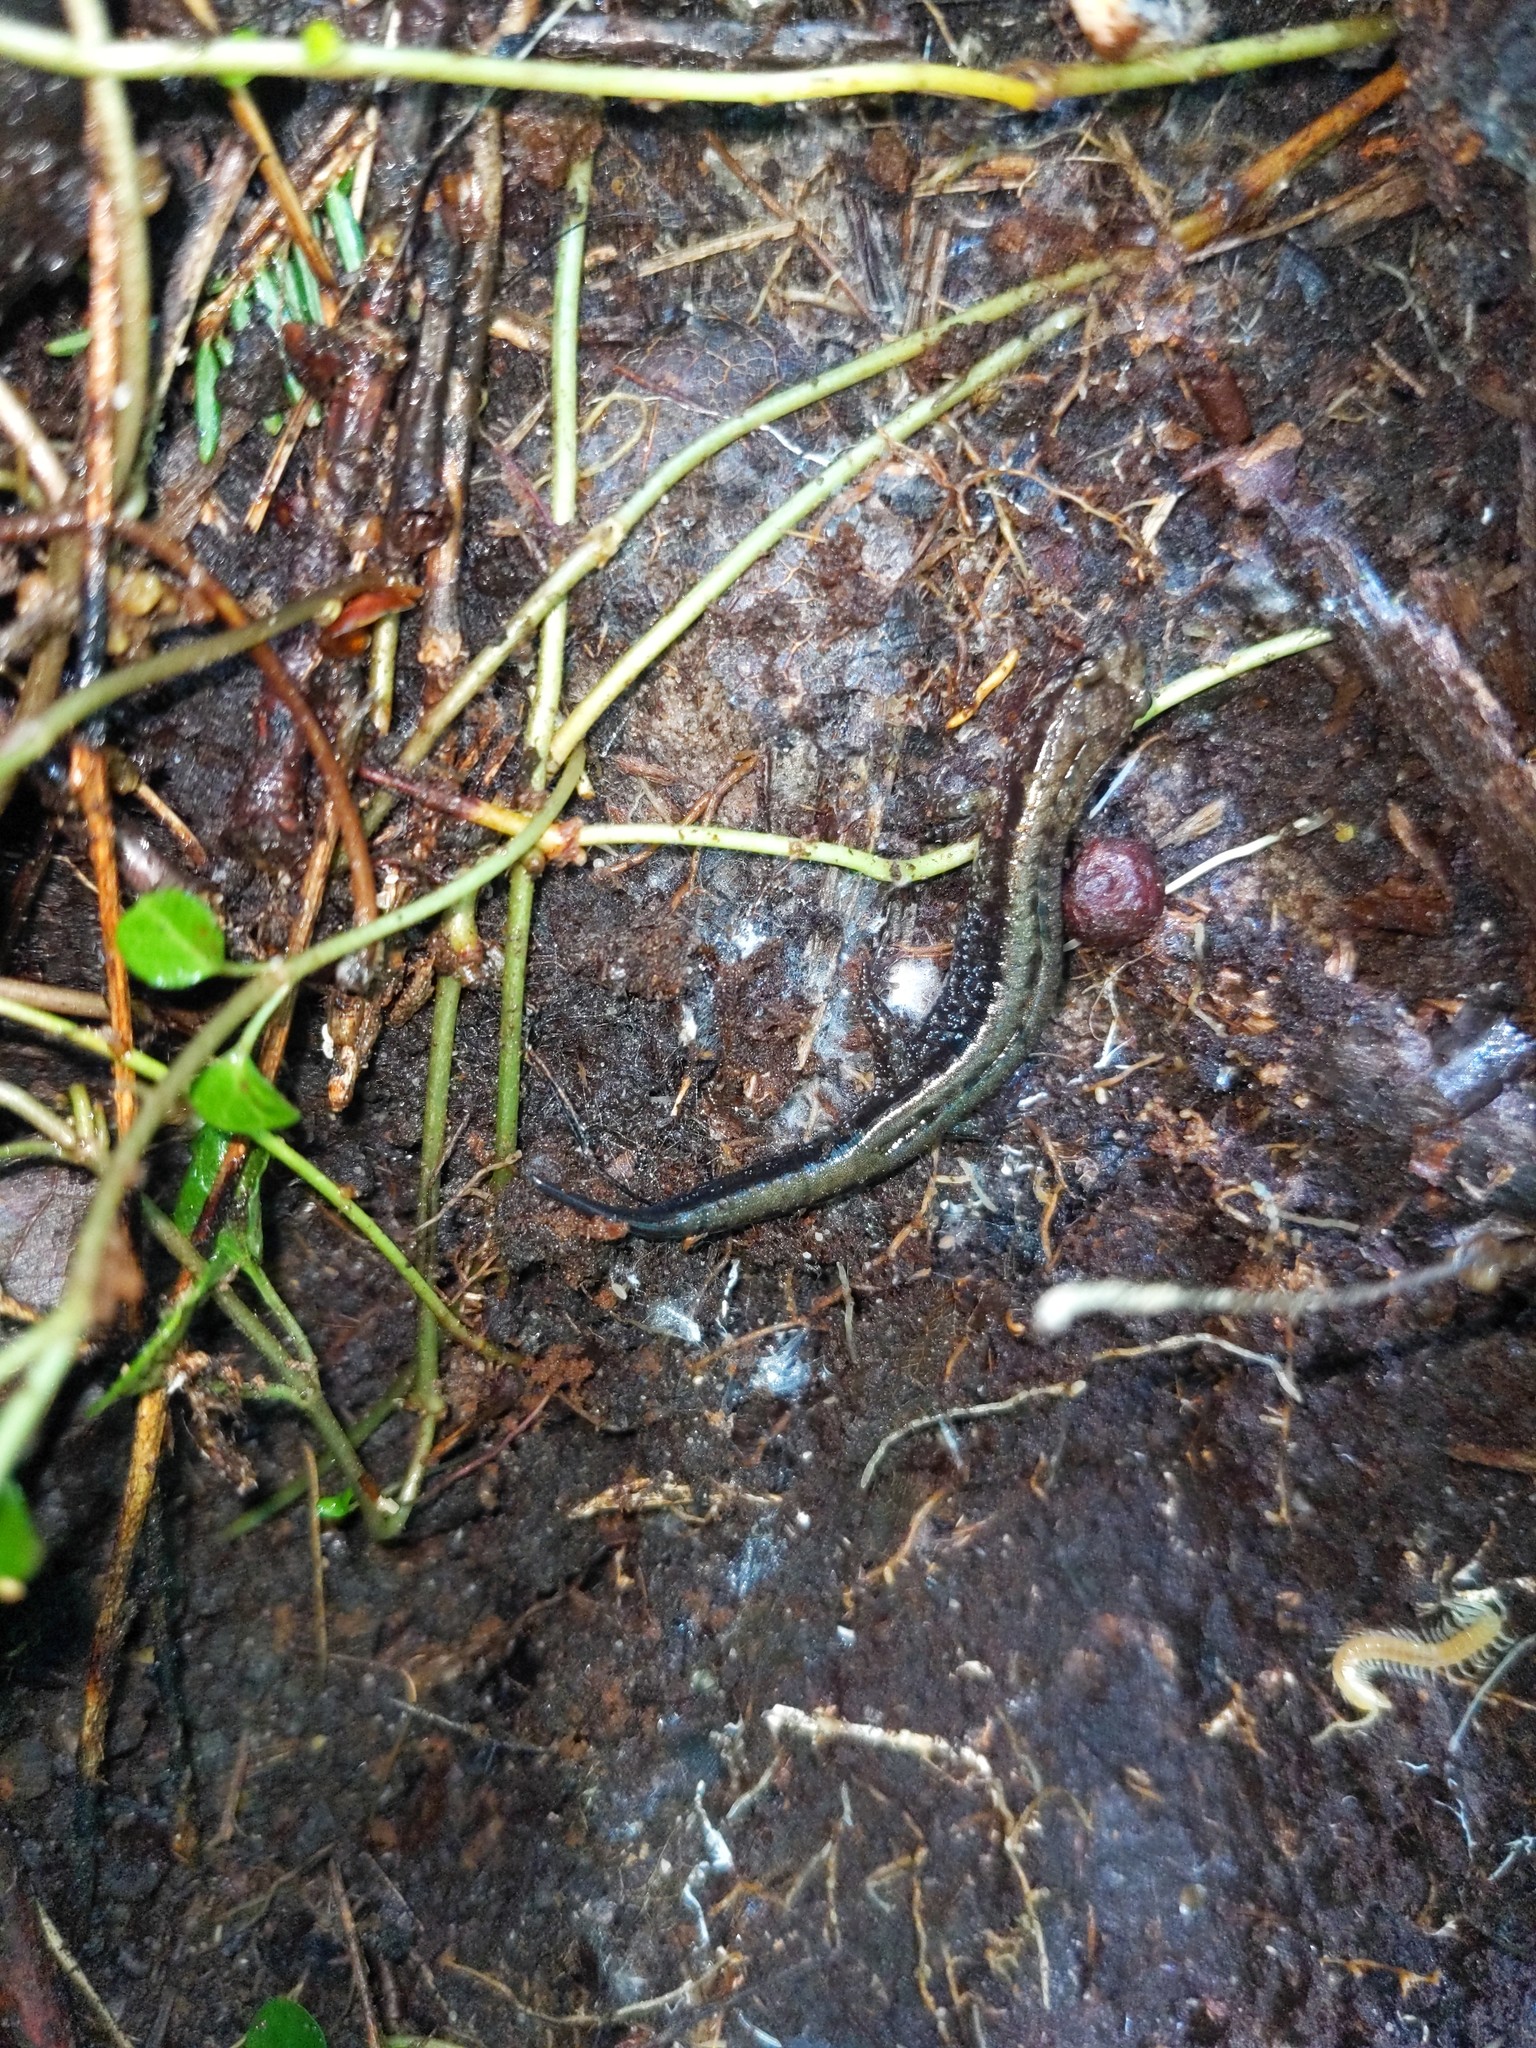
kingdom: Animalia
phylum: Chordata
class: Amphibia
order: Caudata
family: Plethodontidae
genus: Desmognathus
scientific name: Desmognathus ochrophaeus
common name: Allegheny mountain dusky salamander
